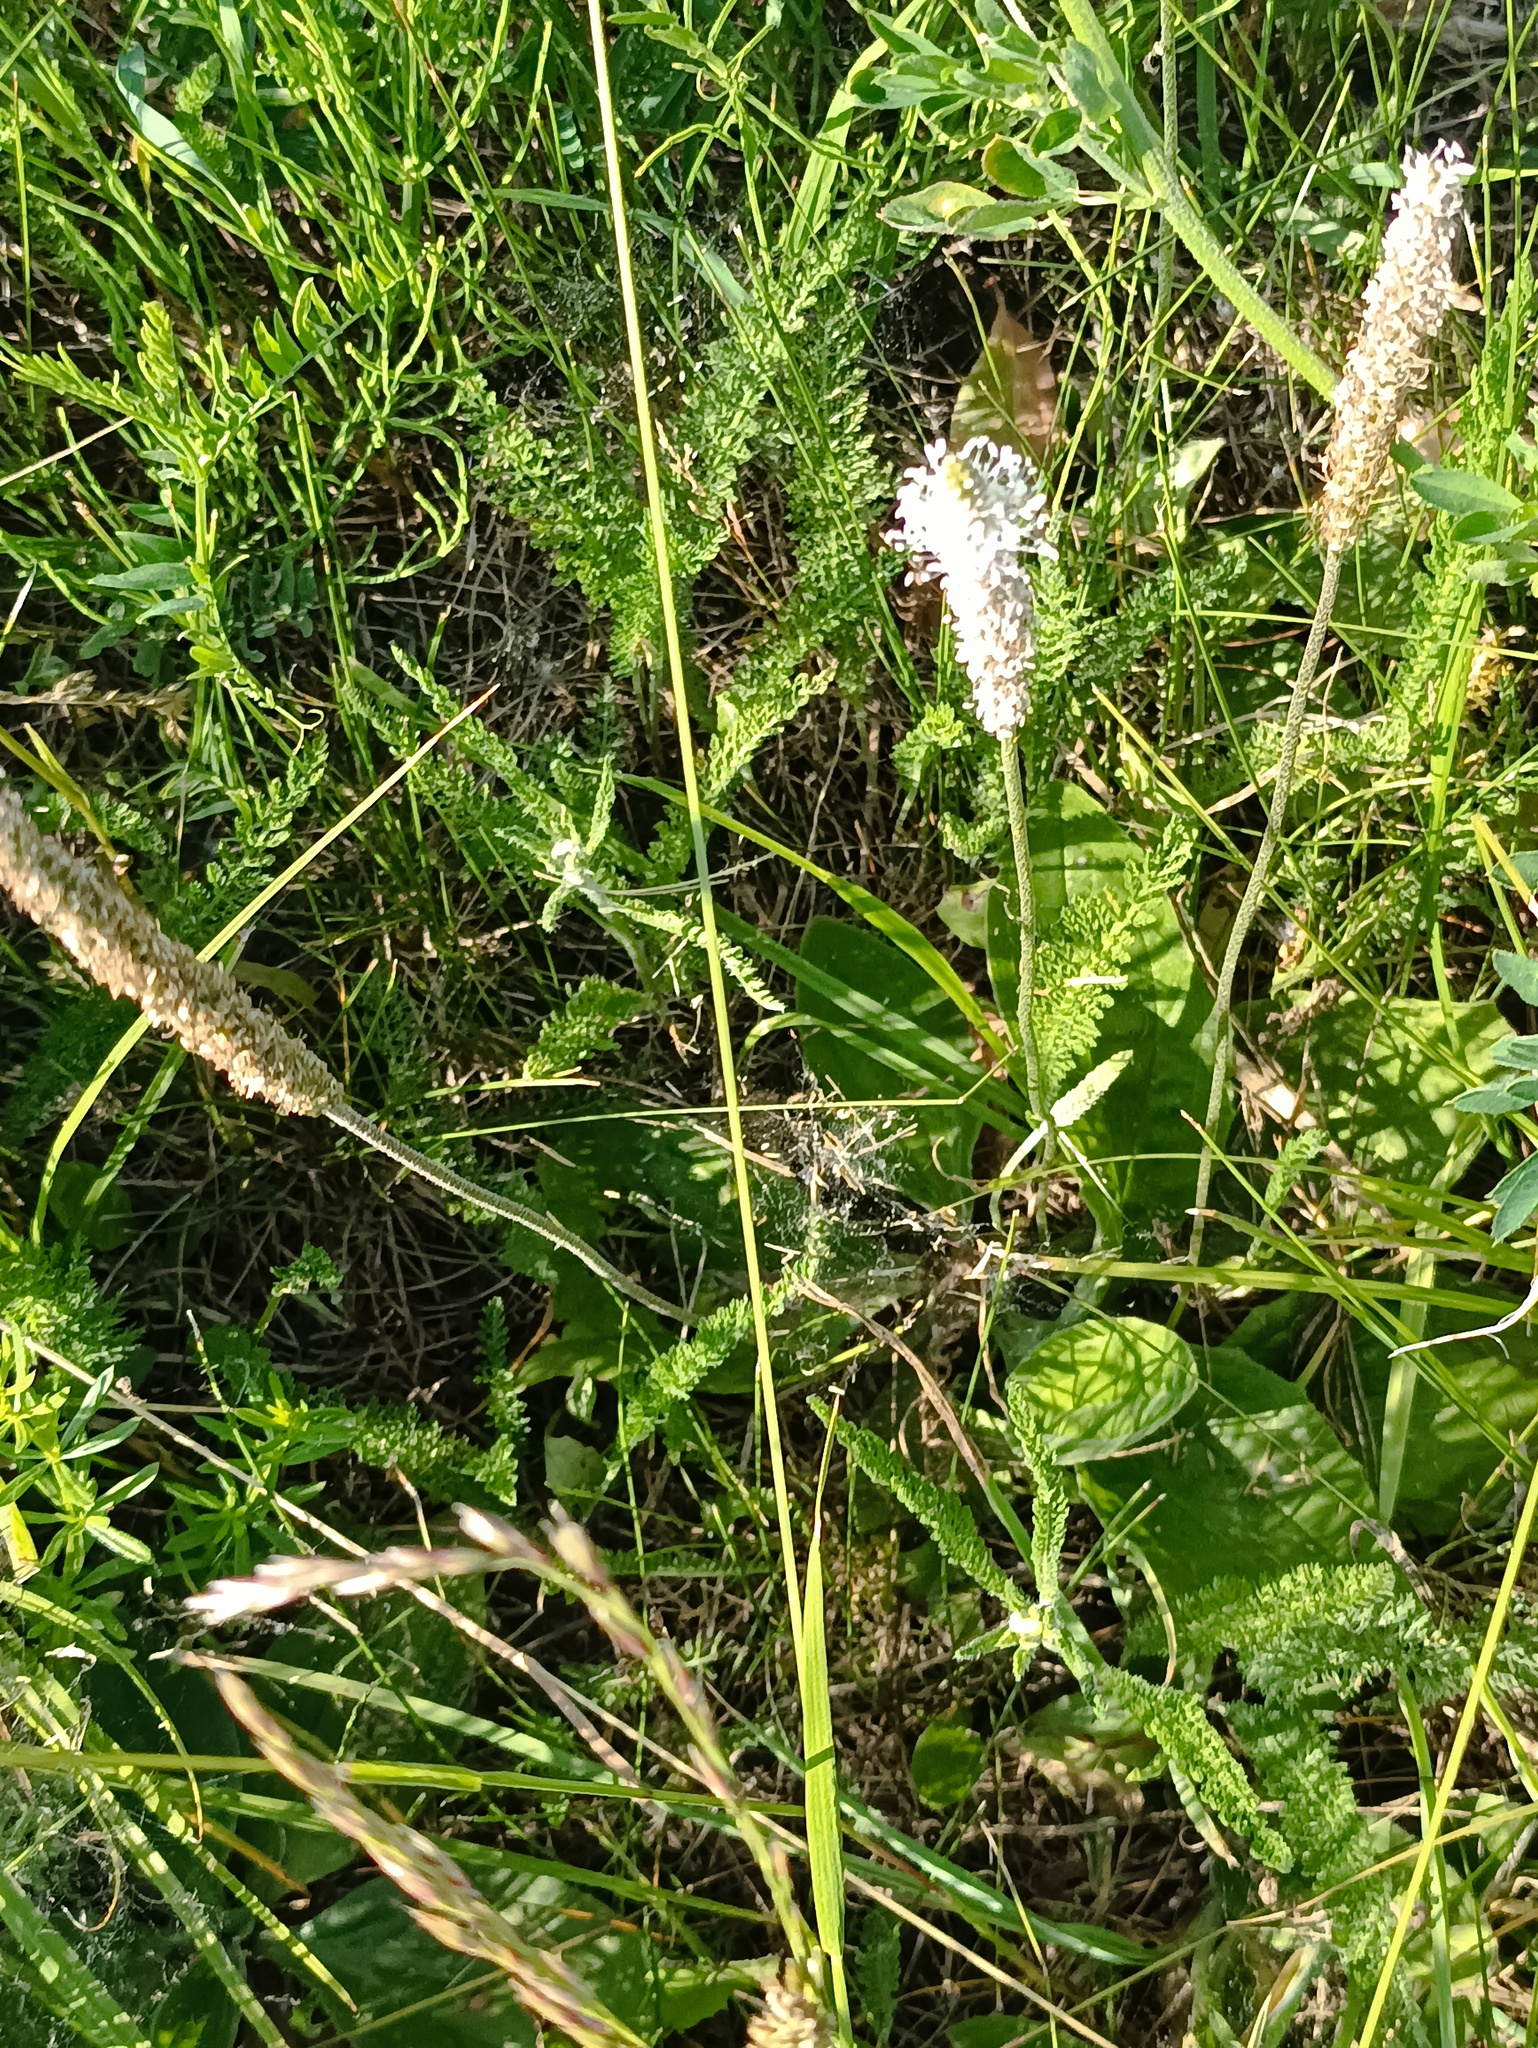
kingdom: Plantae
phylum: Tracheophyta
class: Magnoliopsida
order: Lamiales
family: Plantaginaceae
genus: Plantago
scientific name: Plantago media
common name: Hoary plantain
